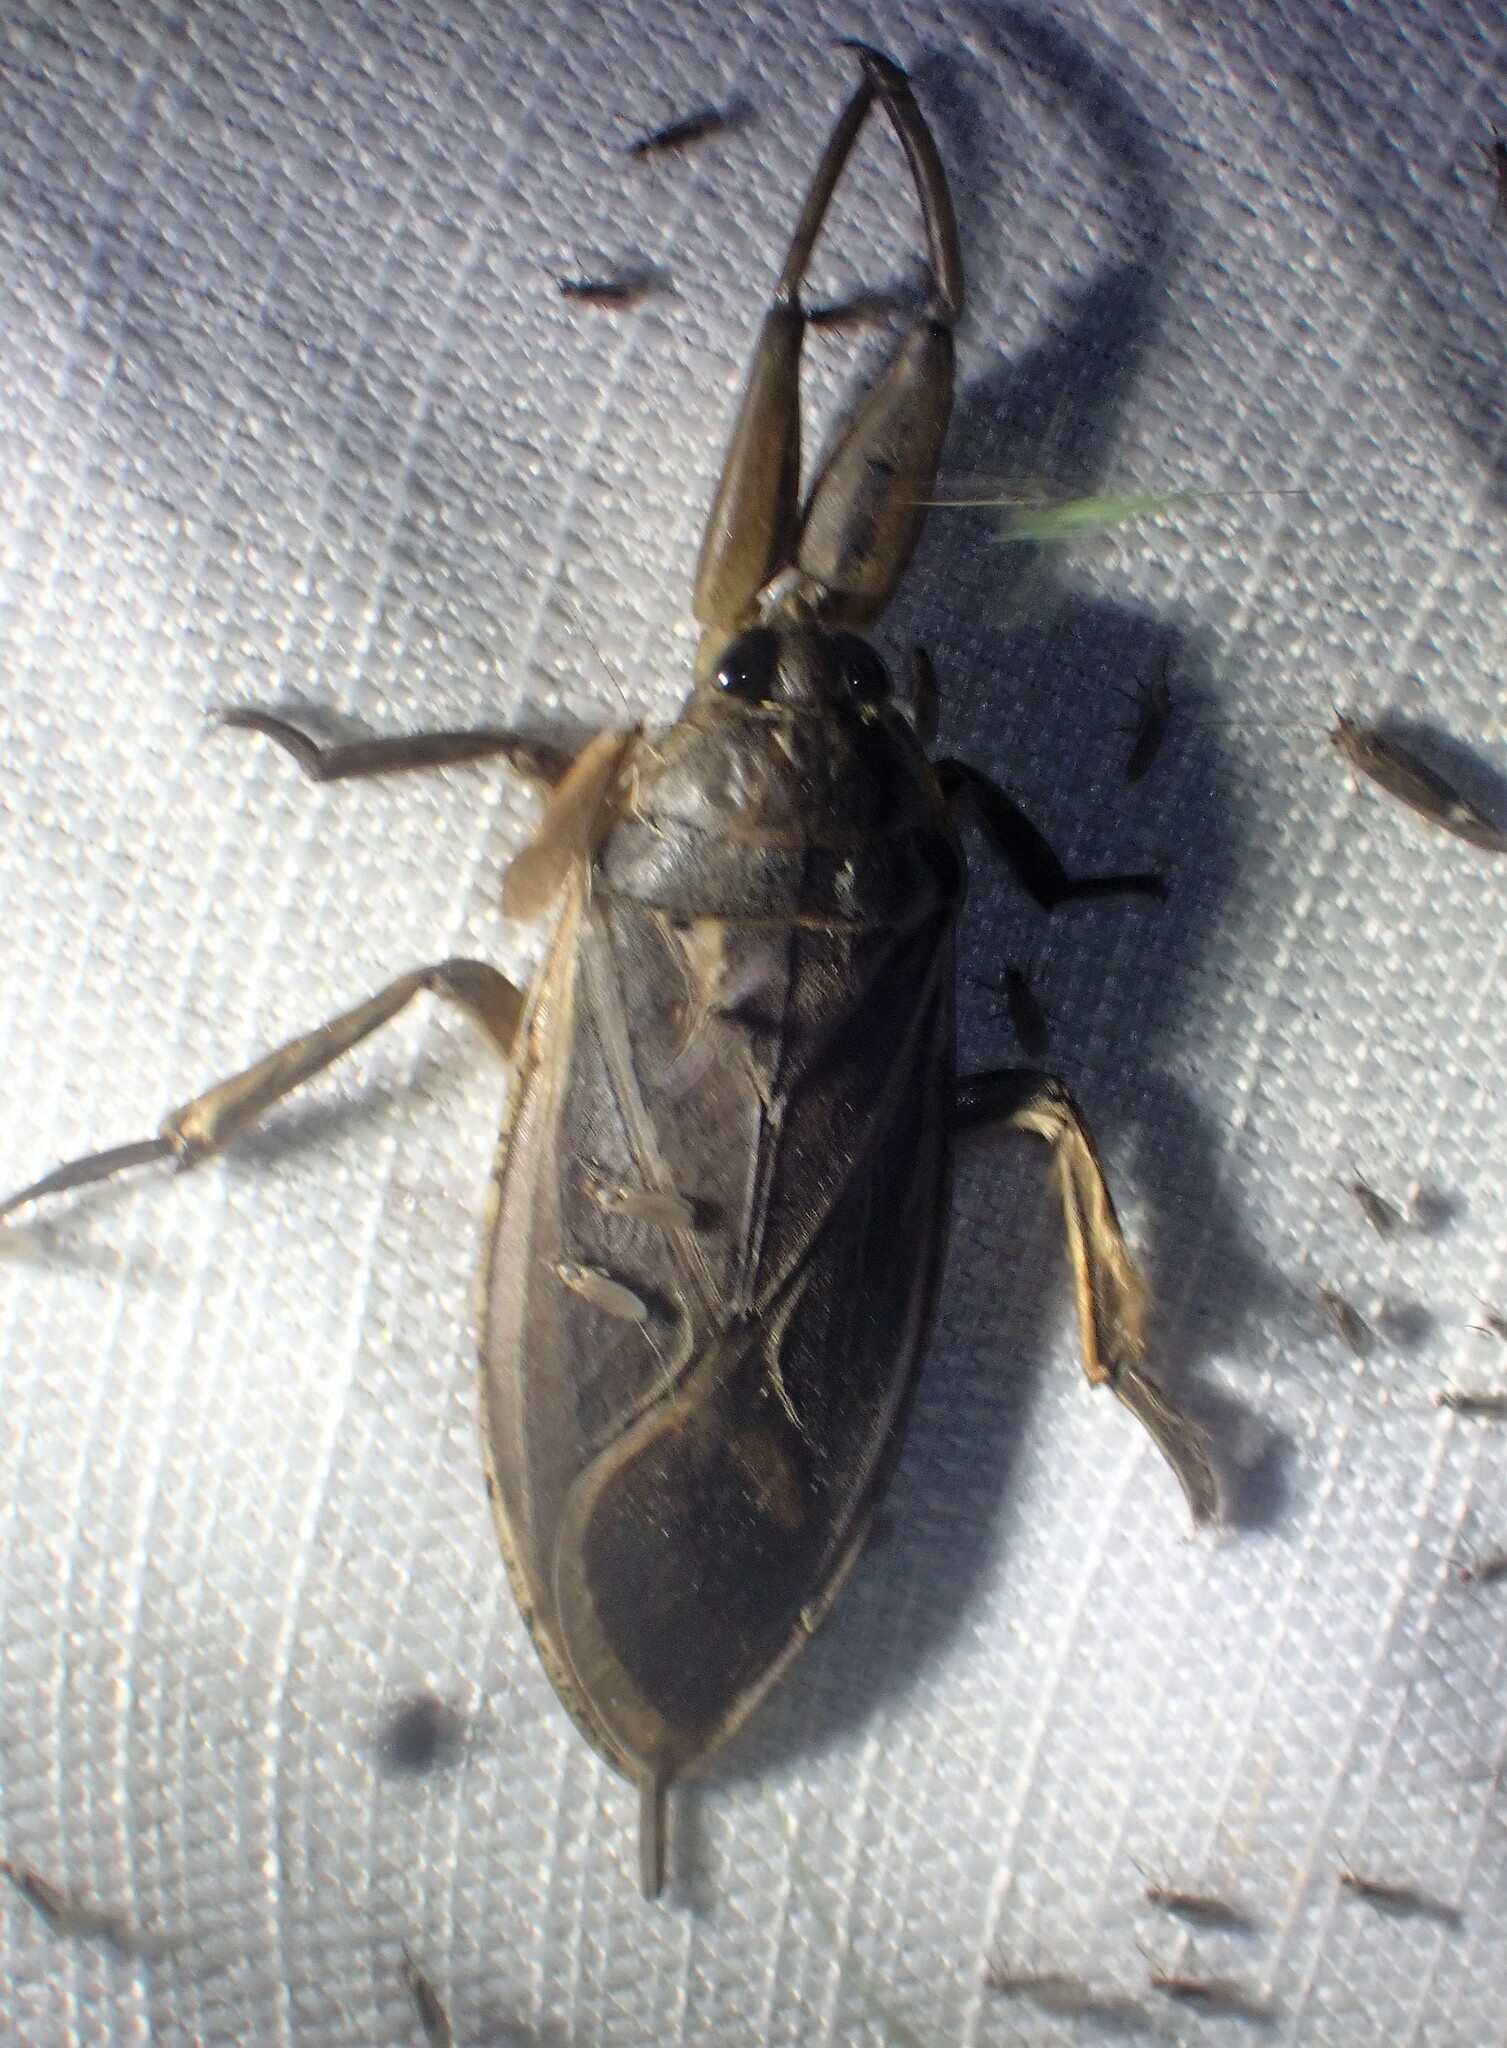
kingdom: Animalia
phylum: Arthropoda
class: Insecta
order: Hemiptera
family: Belostomatidae
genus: Lethocerus
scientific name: Lethocerus americanus
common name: Giant water bug
